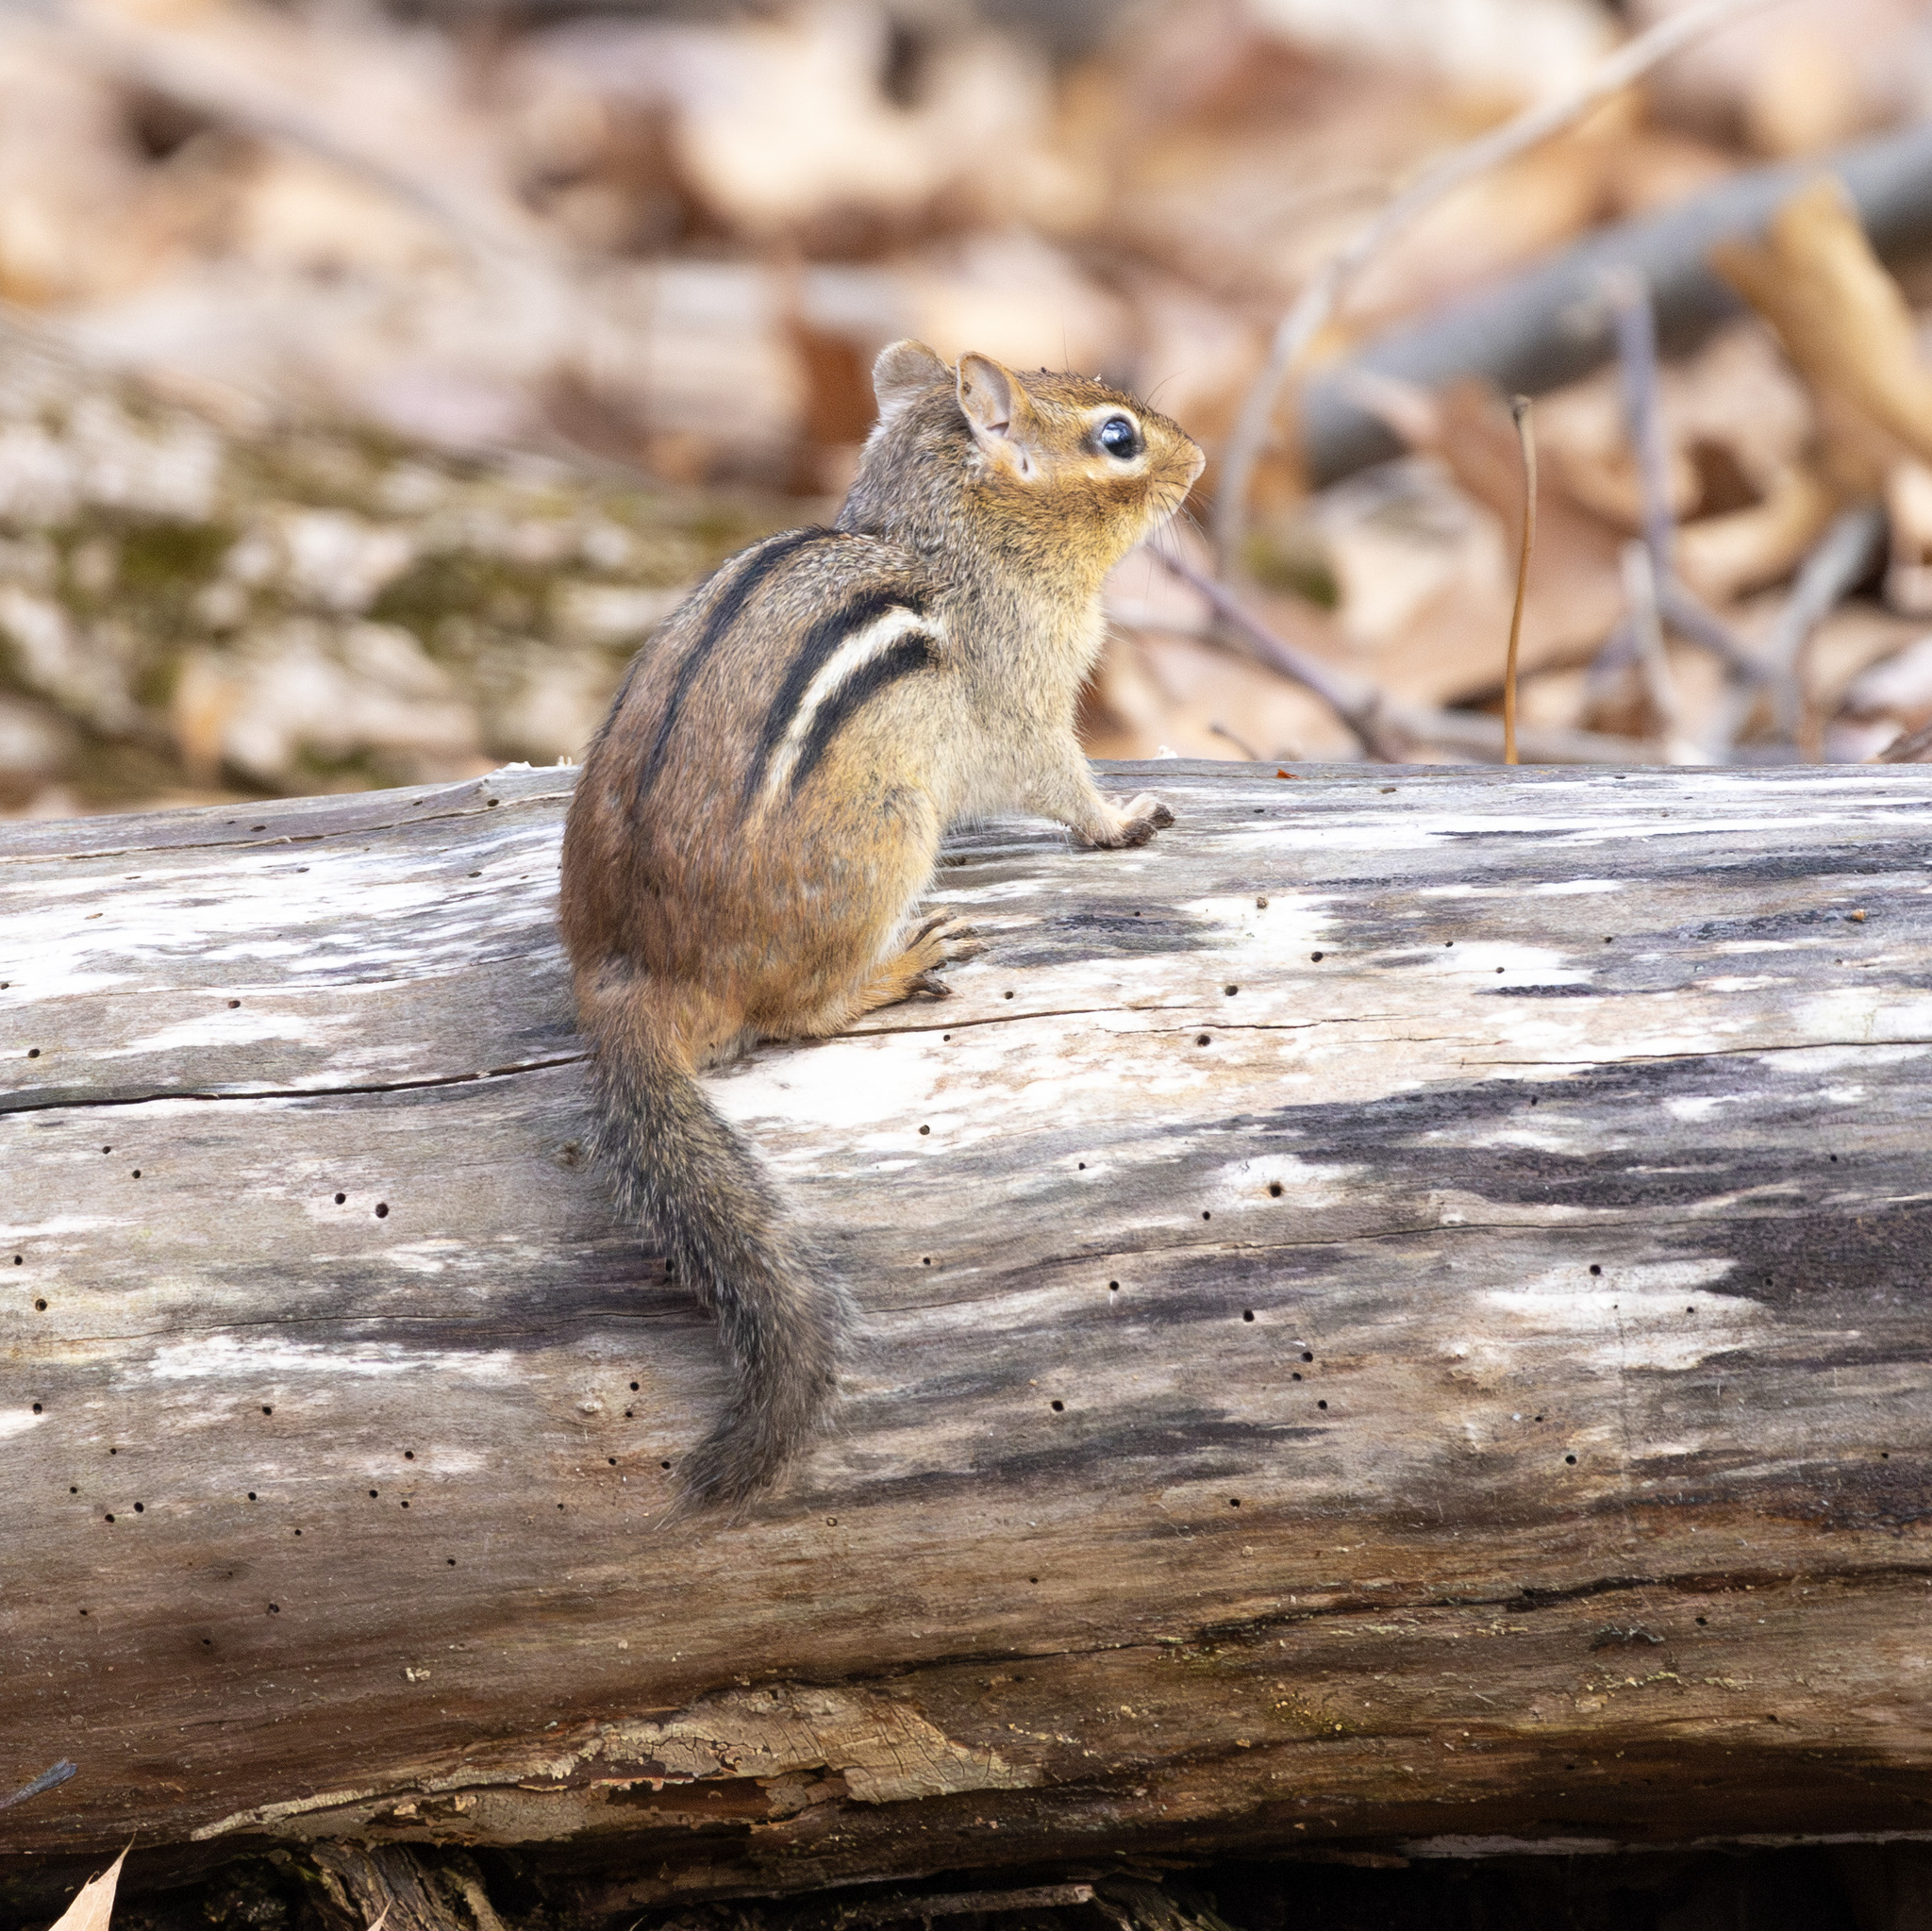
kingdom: Animalia
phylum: Chordata
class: Mammalia
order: Rodentia
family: Sciuridae
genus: Tamias
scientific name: Tamias striatus
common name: Eastern chipmunk
